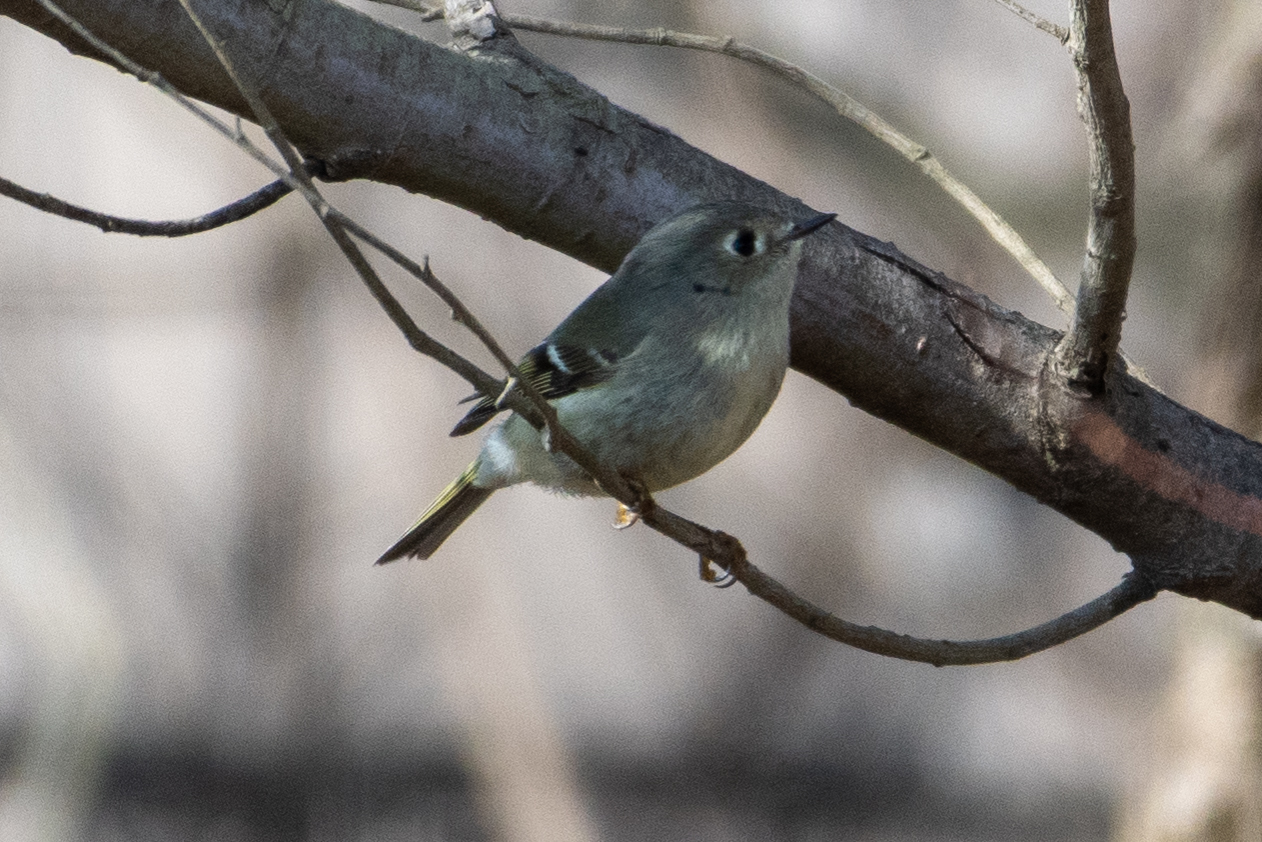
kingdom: Animalia
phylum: Chordata
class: Aves
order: Passeriformes
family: Regulidae
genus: Regulus
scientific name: Regulus calendula
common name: Ruby-crowned kinglet
